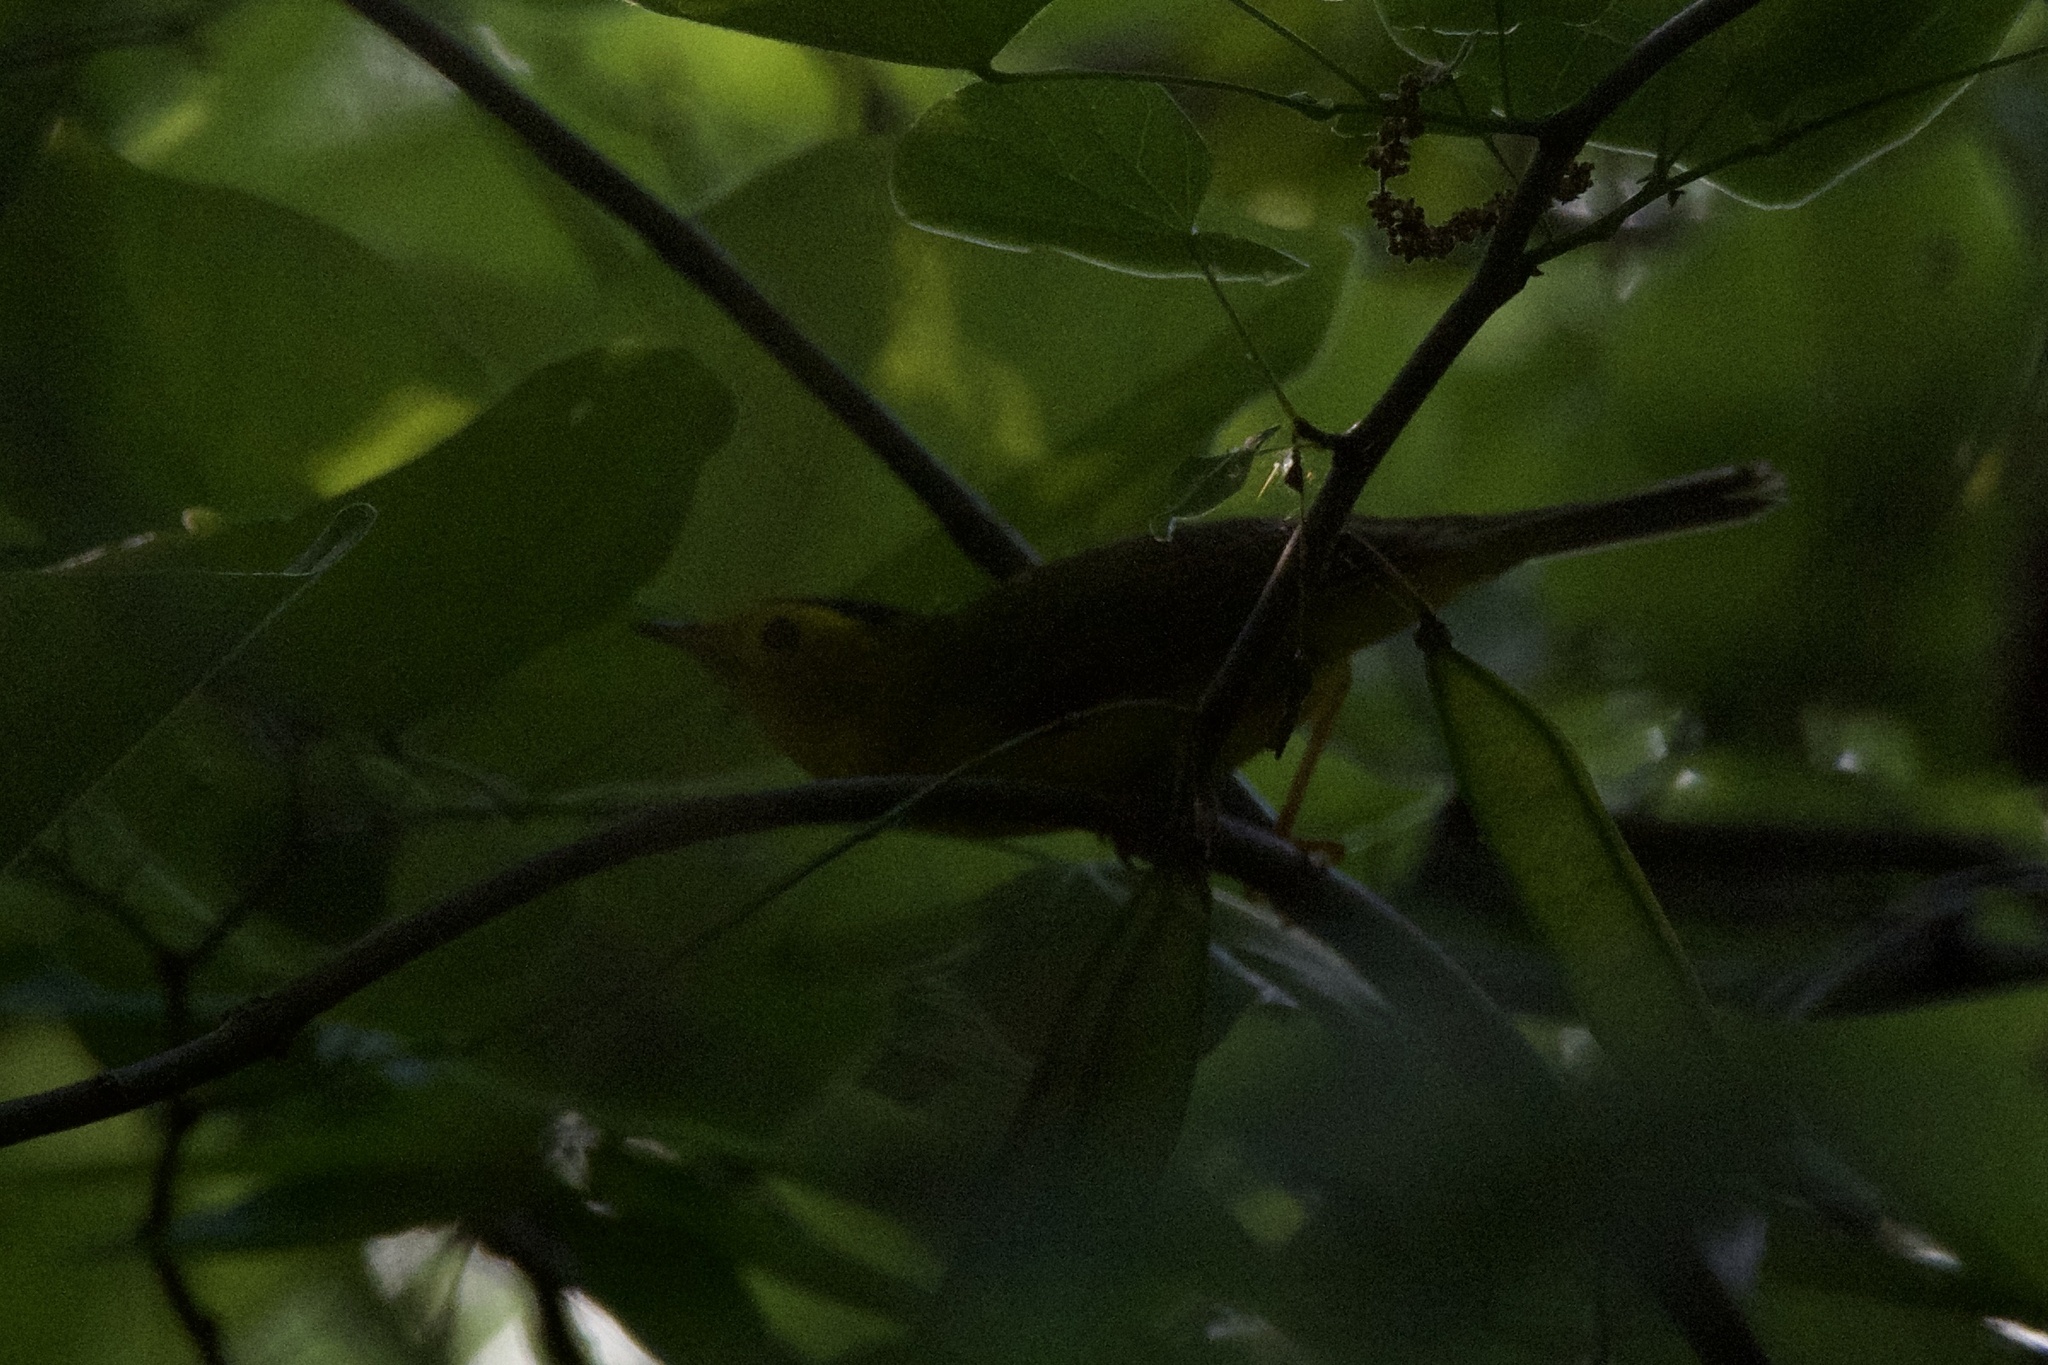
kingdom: Animalia
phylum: Chordata
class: Aves
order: Passeriformes
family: Parulidae
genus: Cardellina
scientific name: Cardellina pusilla
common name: Wilson's warbler
